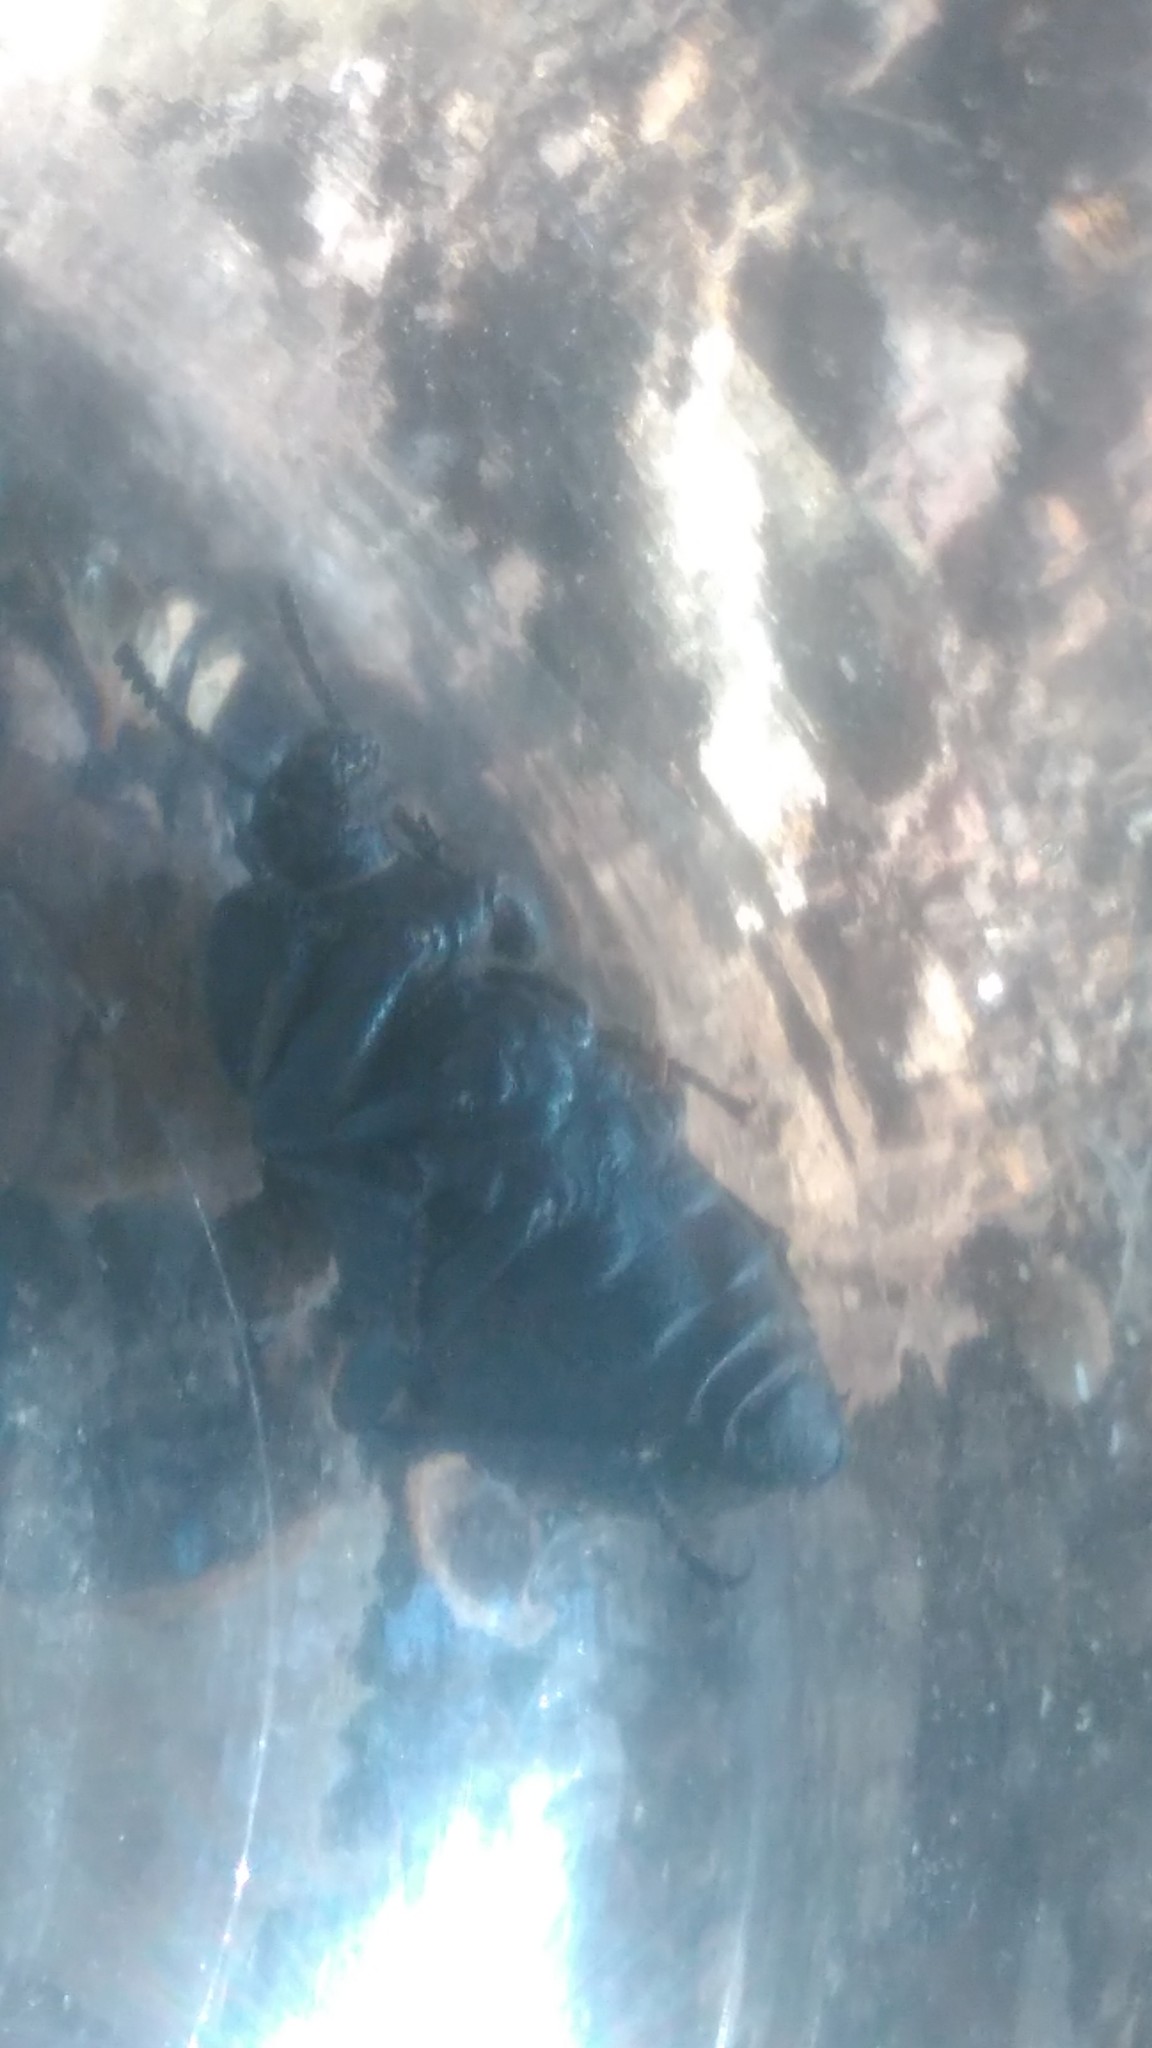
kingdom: Animalia
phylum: Arthropoda
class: Insecta
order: Coleoptera
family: Tenebrionidae
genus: Scotobius
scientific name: Scotobius pilularius
